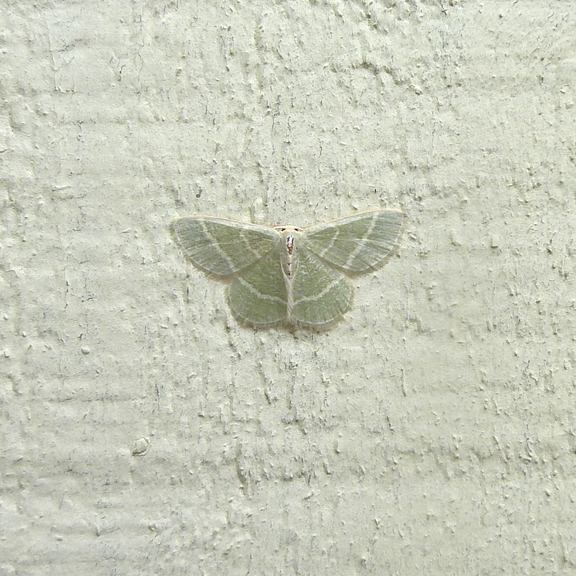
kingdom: Animalia
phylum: Arthropoda
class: Insecta
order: Lepidoptera
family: Geometridae
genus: Chlorochlamys
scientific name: Chlorochlamys chloroleucaria
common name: Blackberry looper
